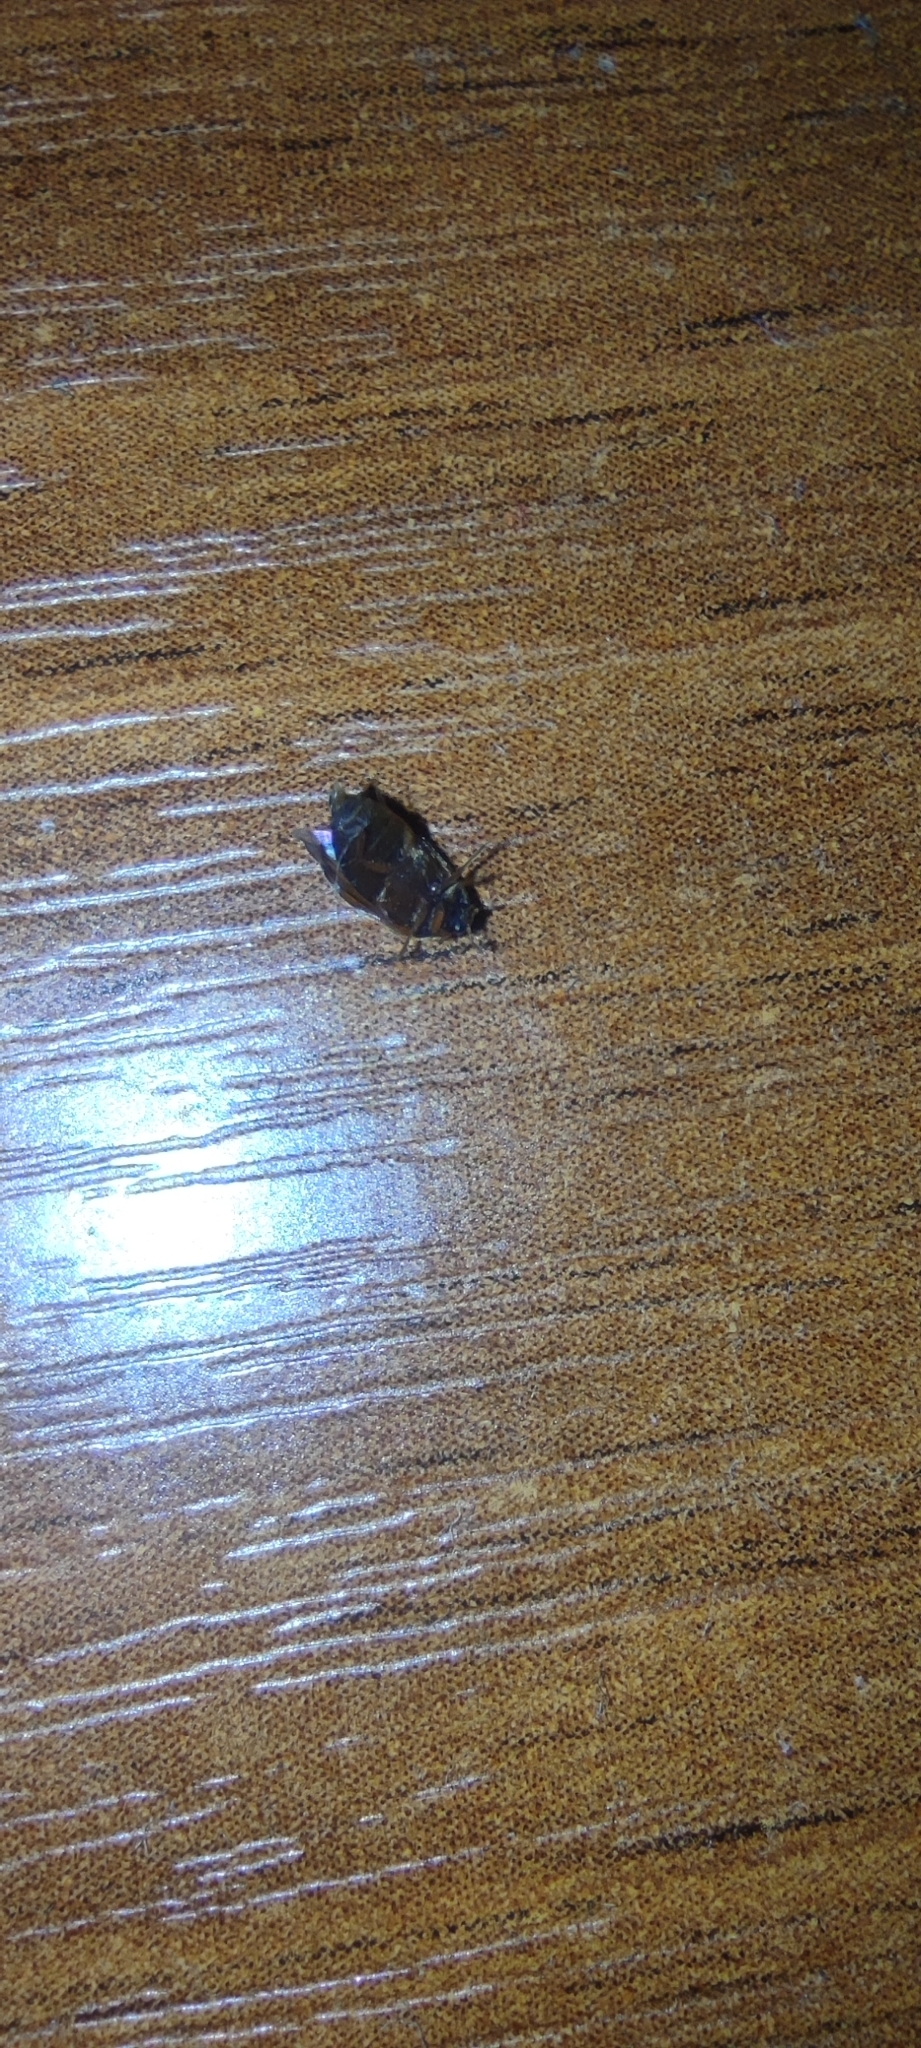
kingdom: Animalia
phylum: Arthropoda
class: Insecta
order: Coleoptera
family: Dermestidae
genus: Attagenus
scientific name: Attagenus smirnovi
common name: Brown carpet beetle
